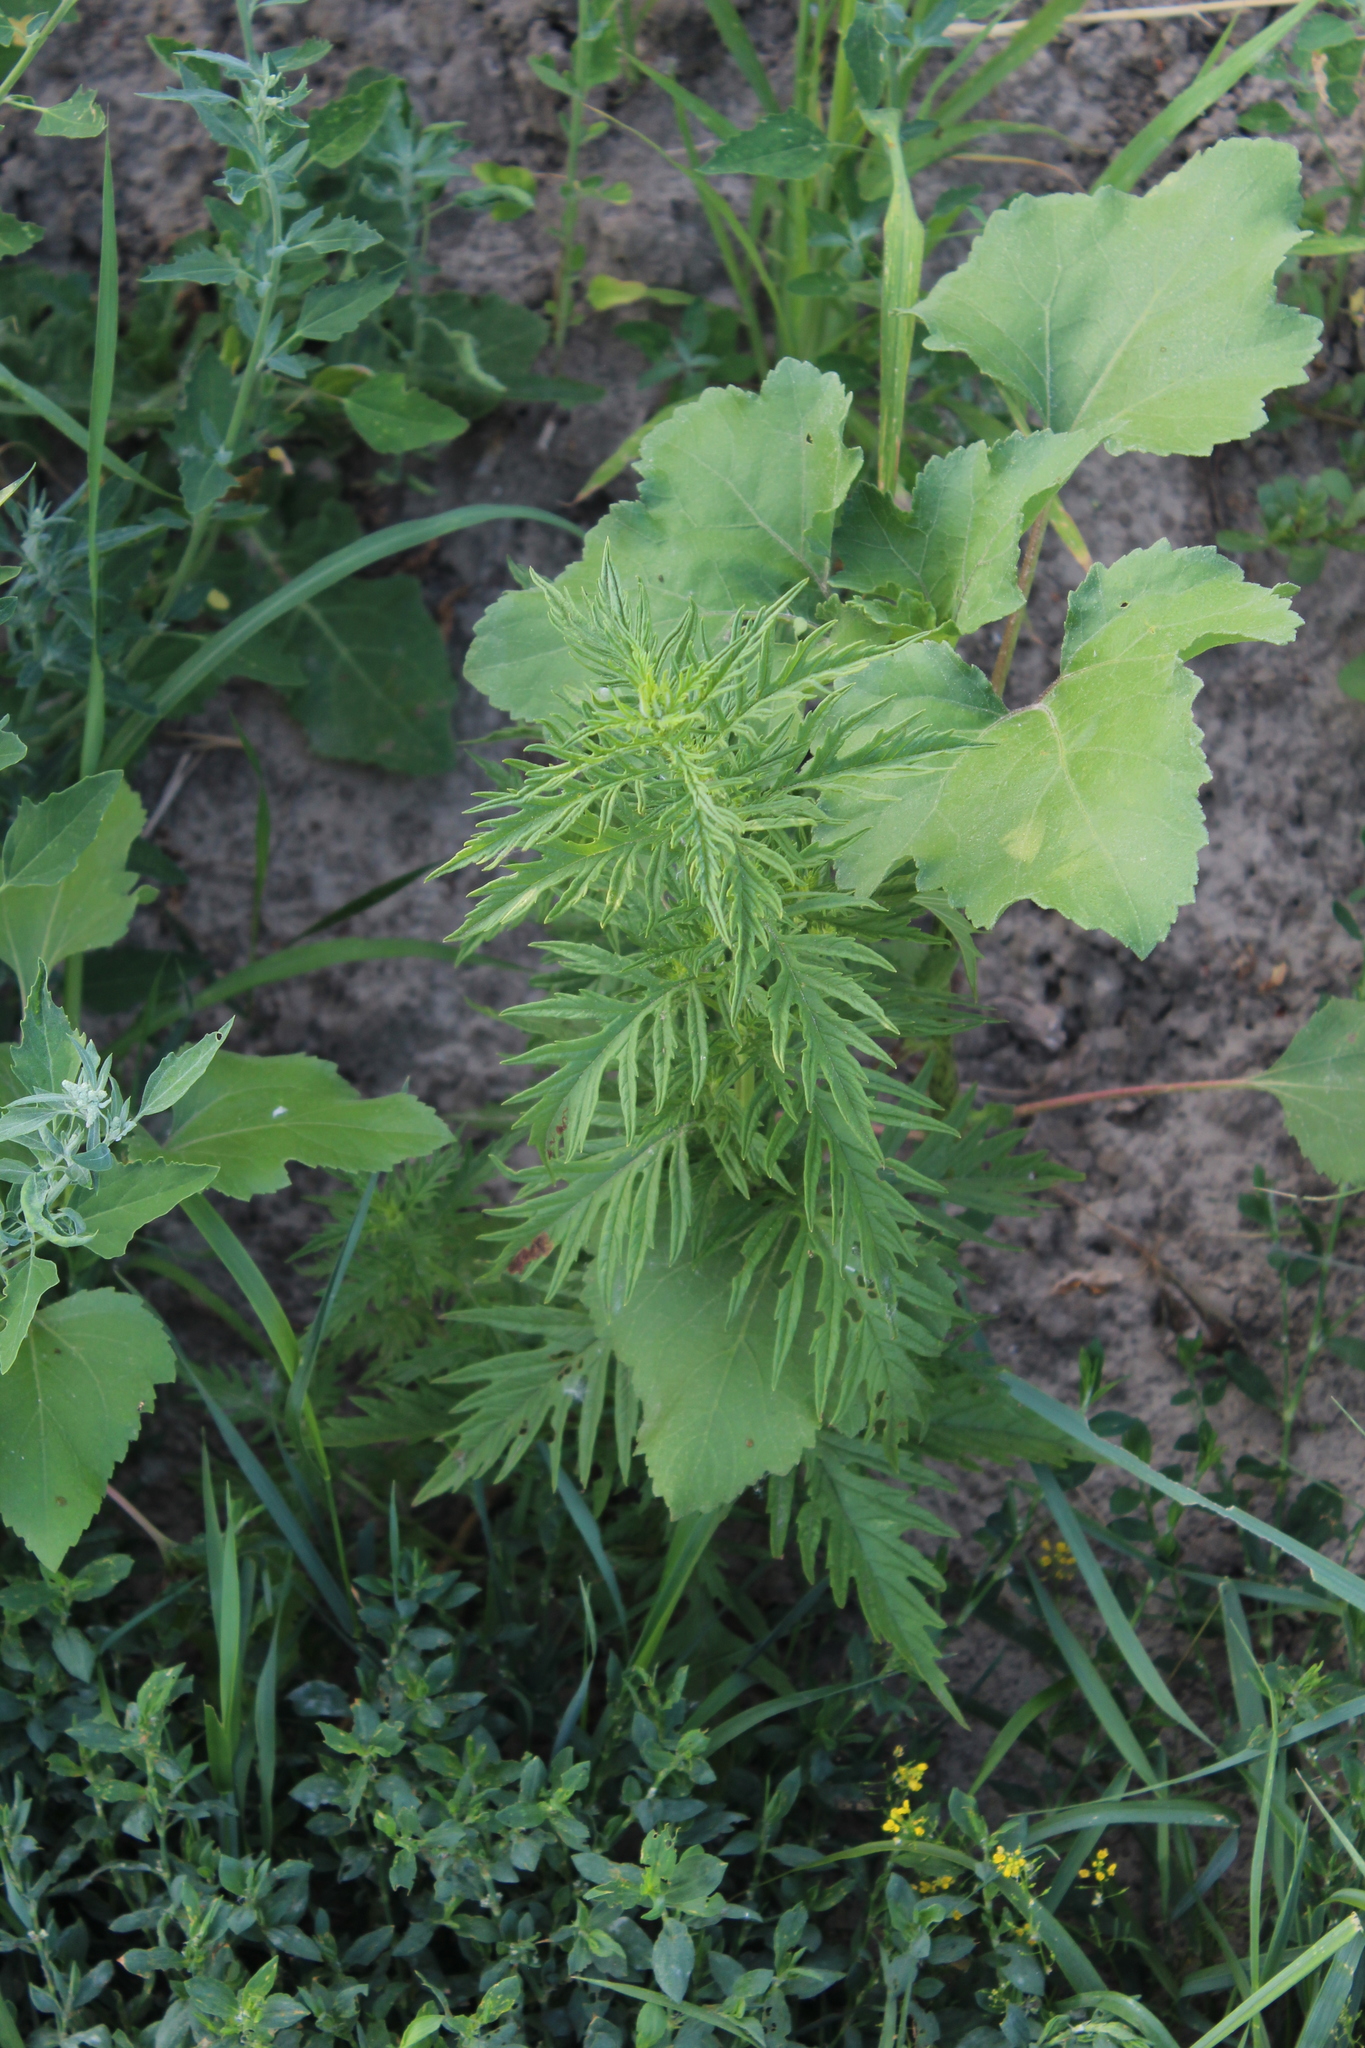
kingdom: Plantae
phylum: Tracheophyta
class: Magnoliopsida
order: Lamiales
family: Lamiaceae
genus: Lycopus
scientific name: Lycopus exaltatus
